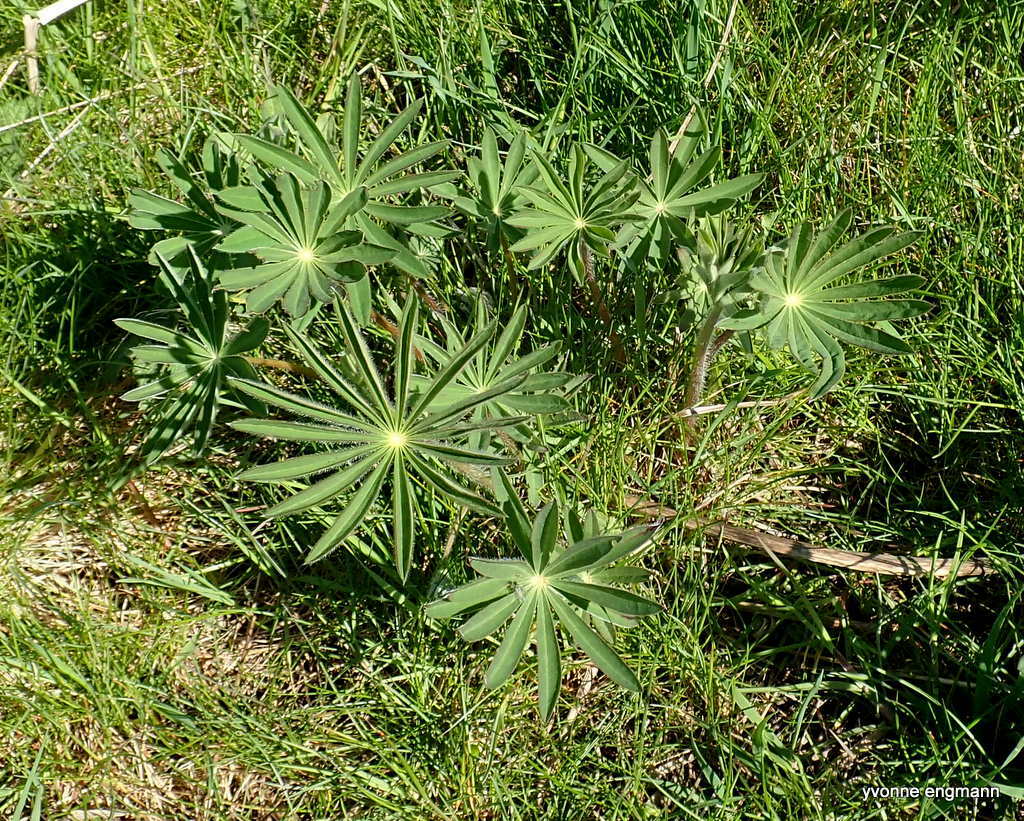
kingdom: Plantae
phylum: Tracheophyta
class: Magnoliopsida
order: Fabales
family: Fabaceae
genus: Lupinus
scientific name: Lupinus polyphyllus
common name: Garden lupin
